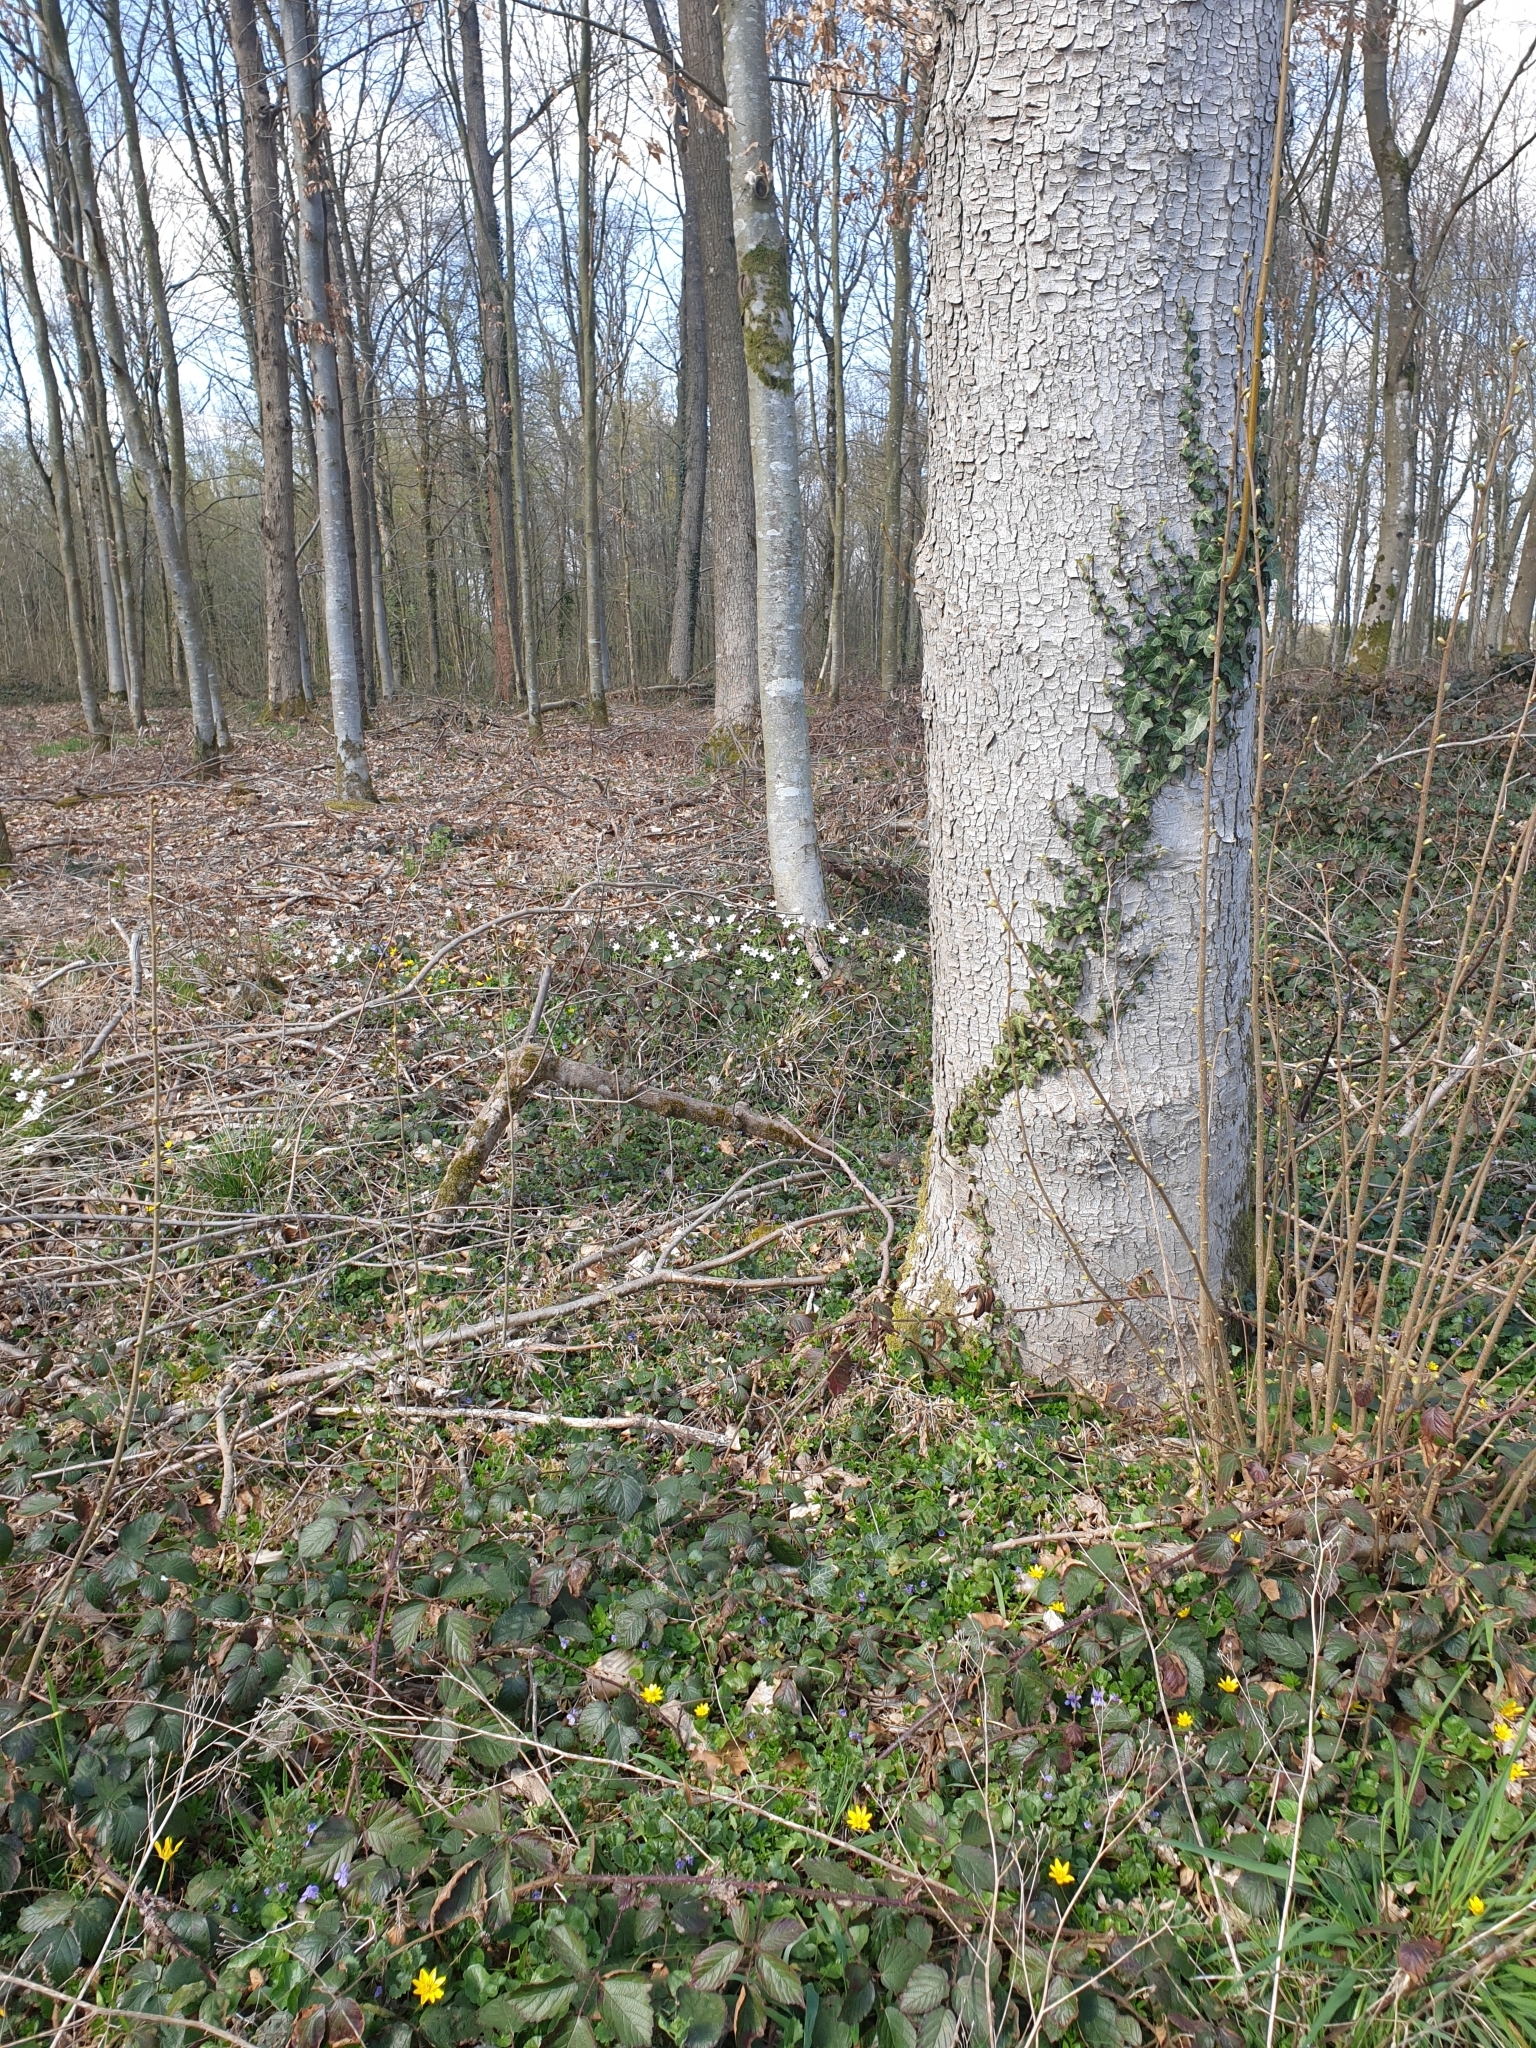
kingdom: Plantae
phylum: Tracheophyta
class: Magnoliopsida
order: Ranunculales
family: Ranunculaceae
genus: Anemone
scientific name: Anemone nemorosa
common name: Wood anemone
